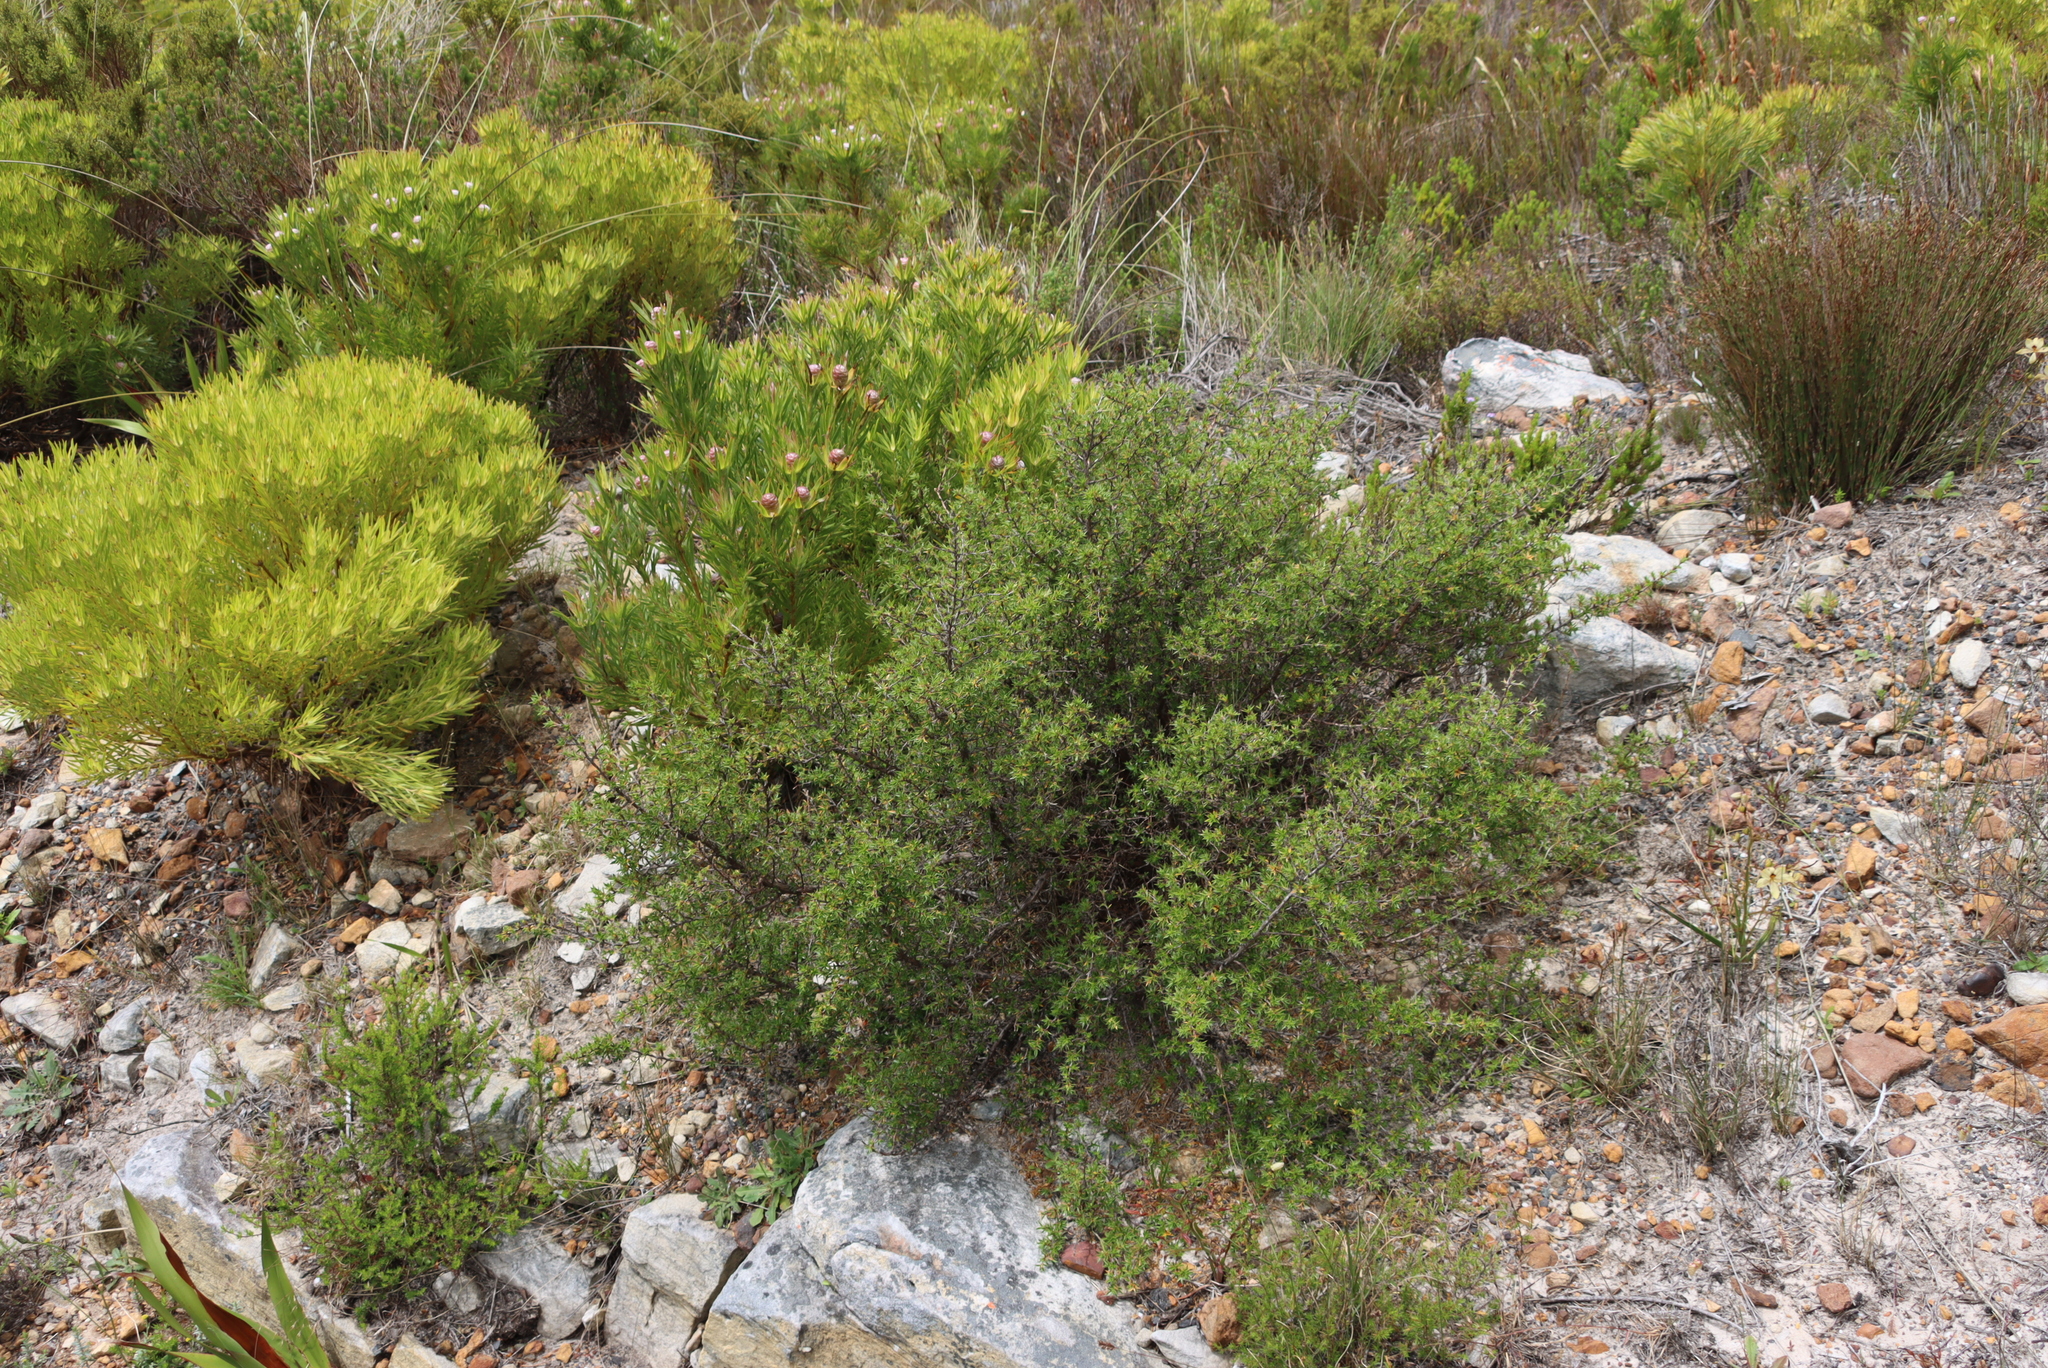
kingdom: Plantae
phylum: Tracheophyta
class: Magnoliopsida
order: Rosales
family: Rosaceae
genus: Cliffortia
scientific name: Cliffortia ruscifolia
